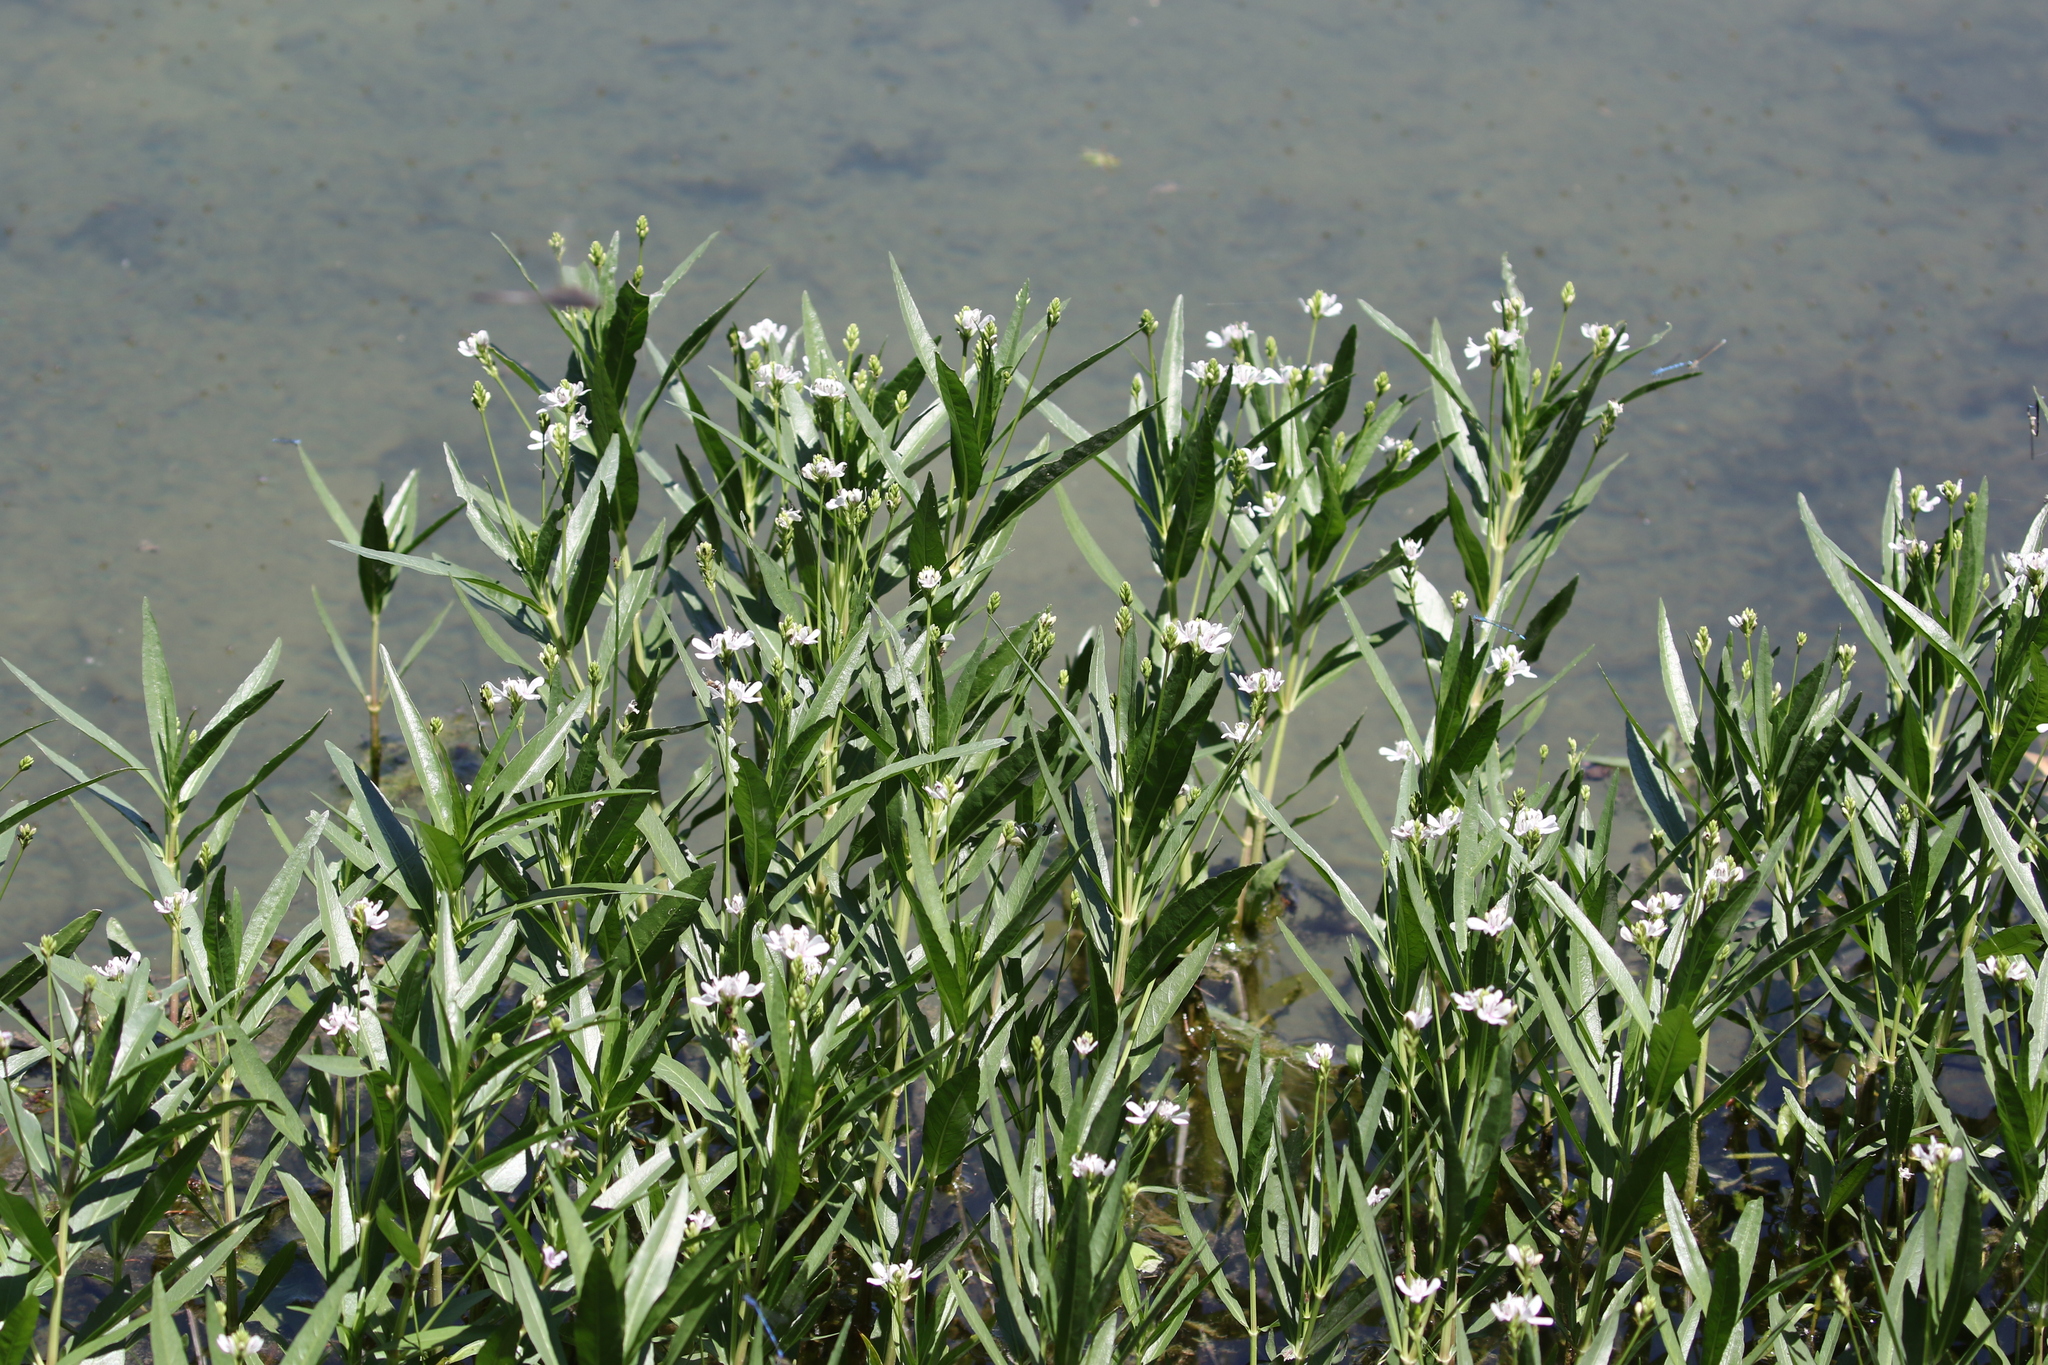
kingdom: Plantae
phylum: Tracheophyta
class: Magnoliopsida
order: Lamiales
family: Acanthaceae
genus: Dianthera
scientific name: Dianthera americana
